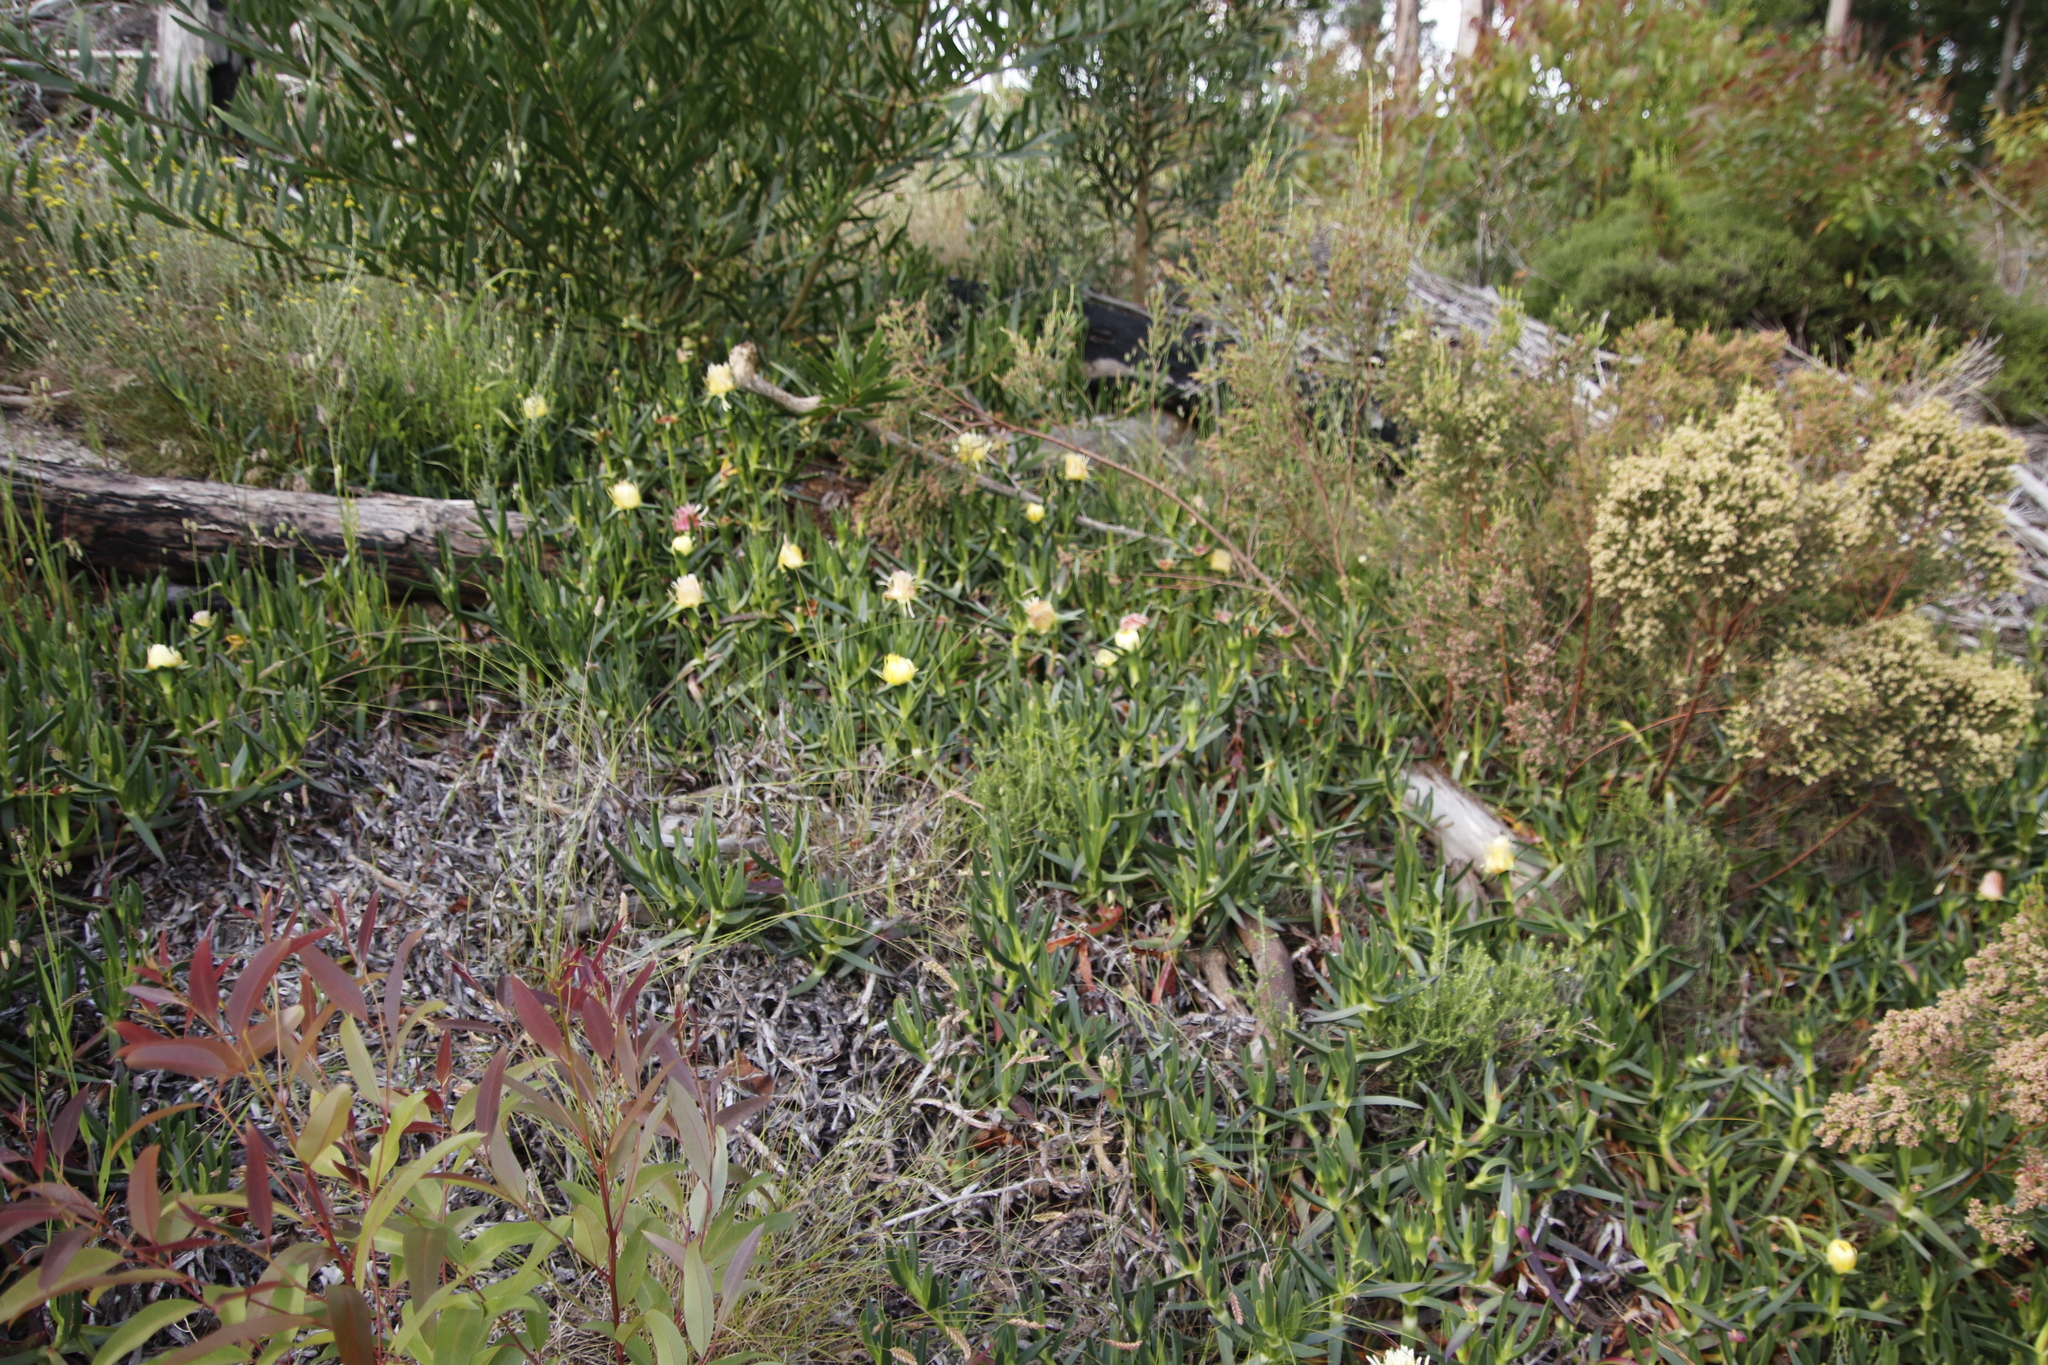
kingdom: Plantae
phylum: Tracheophyta
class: Magnoliopsida
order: Caryophyllales
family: Aizoaceae
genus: Carpobrotus
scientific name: Carpobrotus edulis
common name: Hottentot-fig
